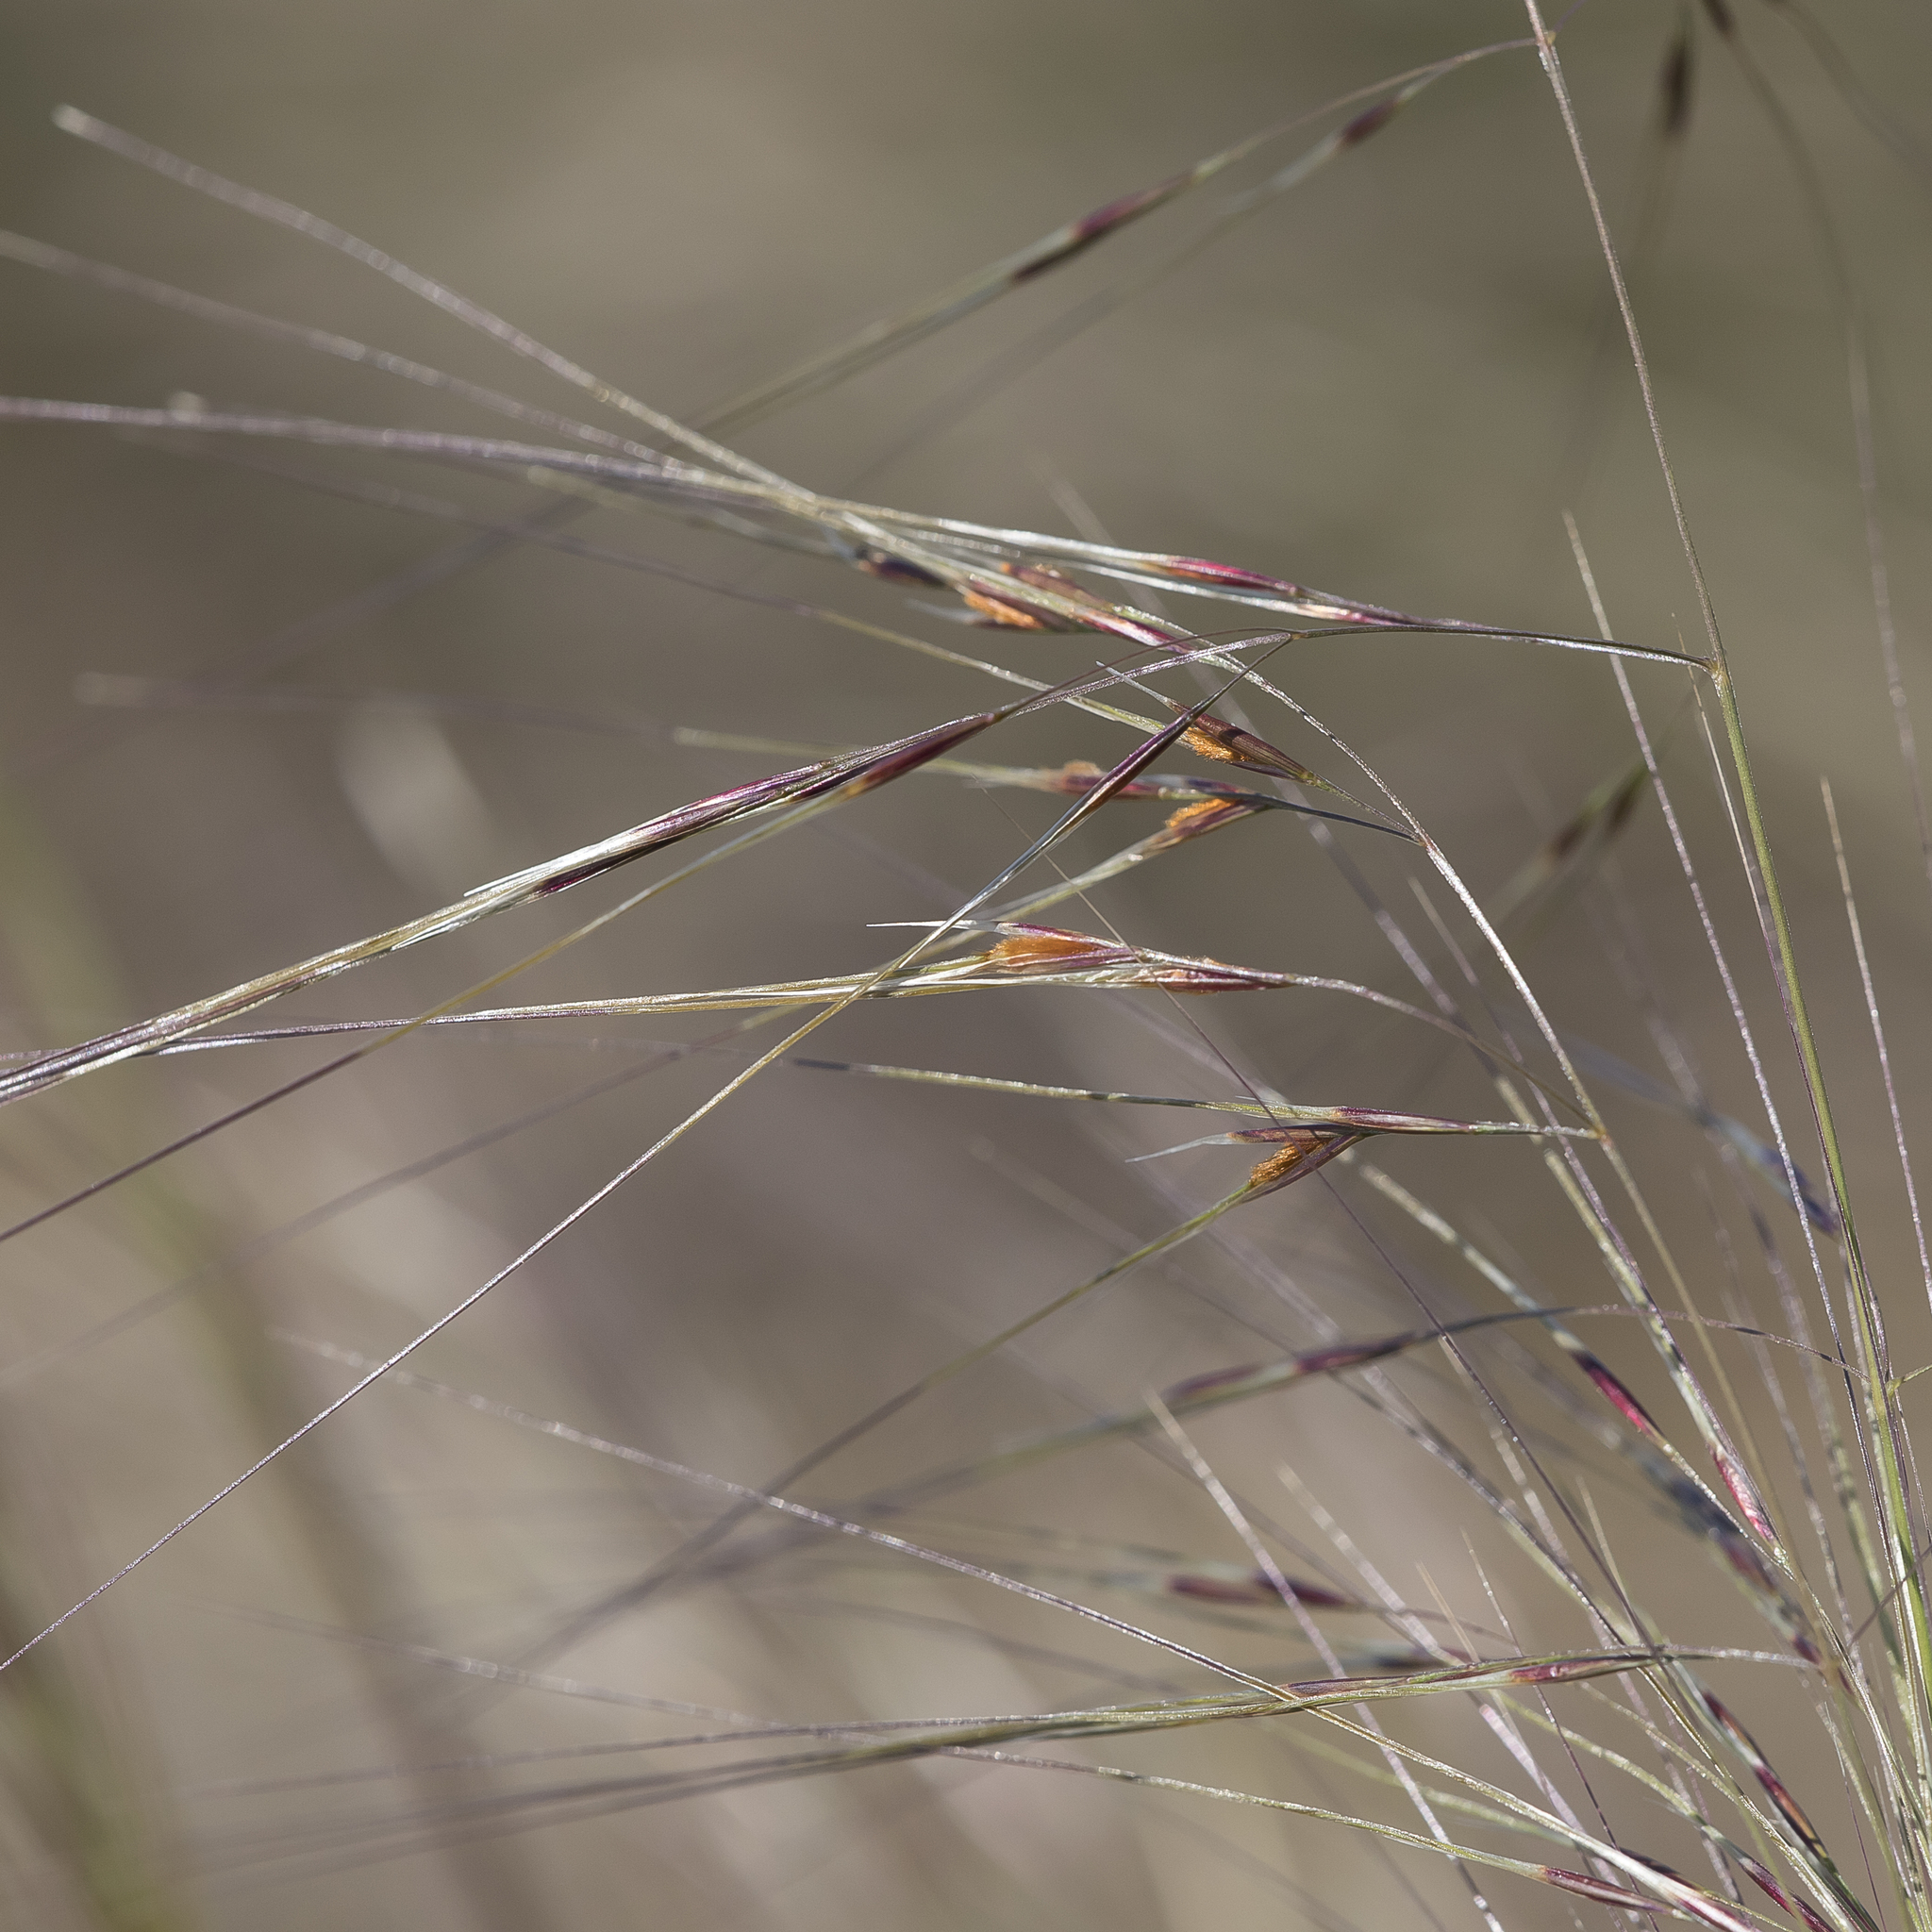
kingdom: Plantae
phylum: Tracheophyta
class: Liliopsida
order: Poales
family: Poaceae
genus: Austrostipa
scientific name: Austrostipa eremophila
